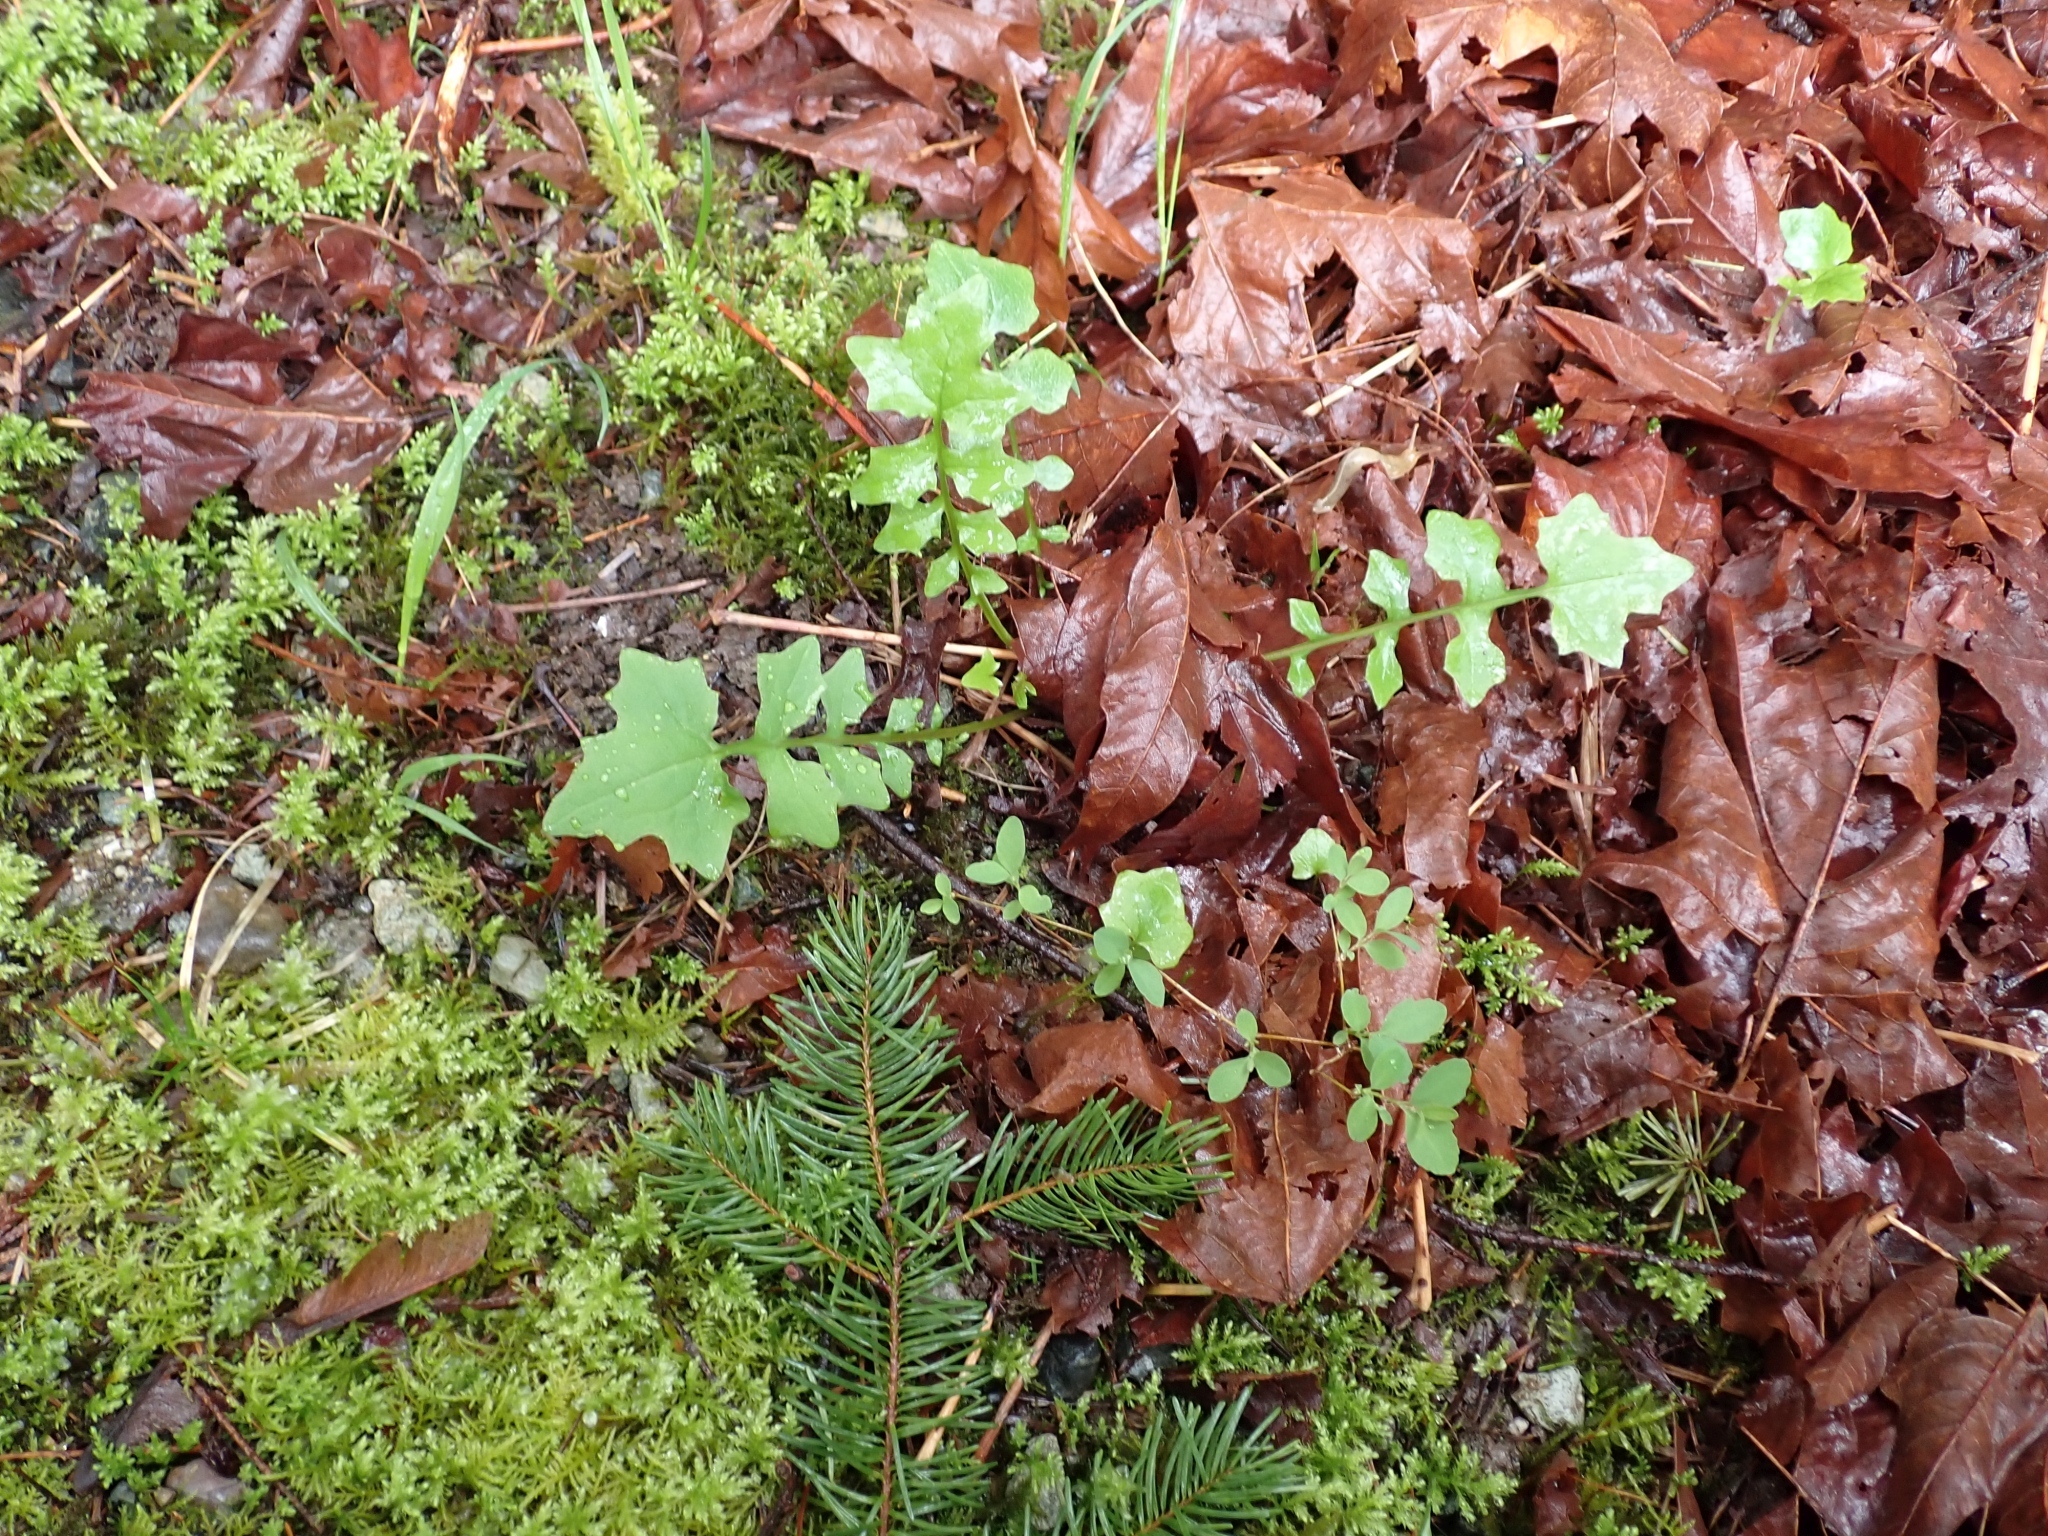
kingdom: Plantae
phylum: Tracheophyta
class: Magnoliopsida
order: Asterales
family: Asteraceae
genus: Mycelis
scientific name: Mycelis muralis
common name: Wall lettuce
